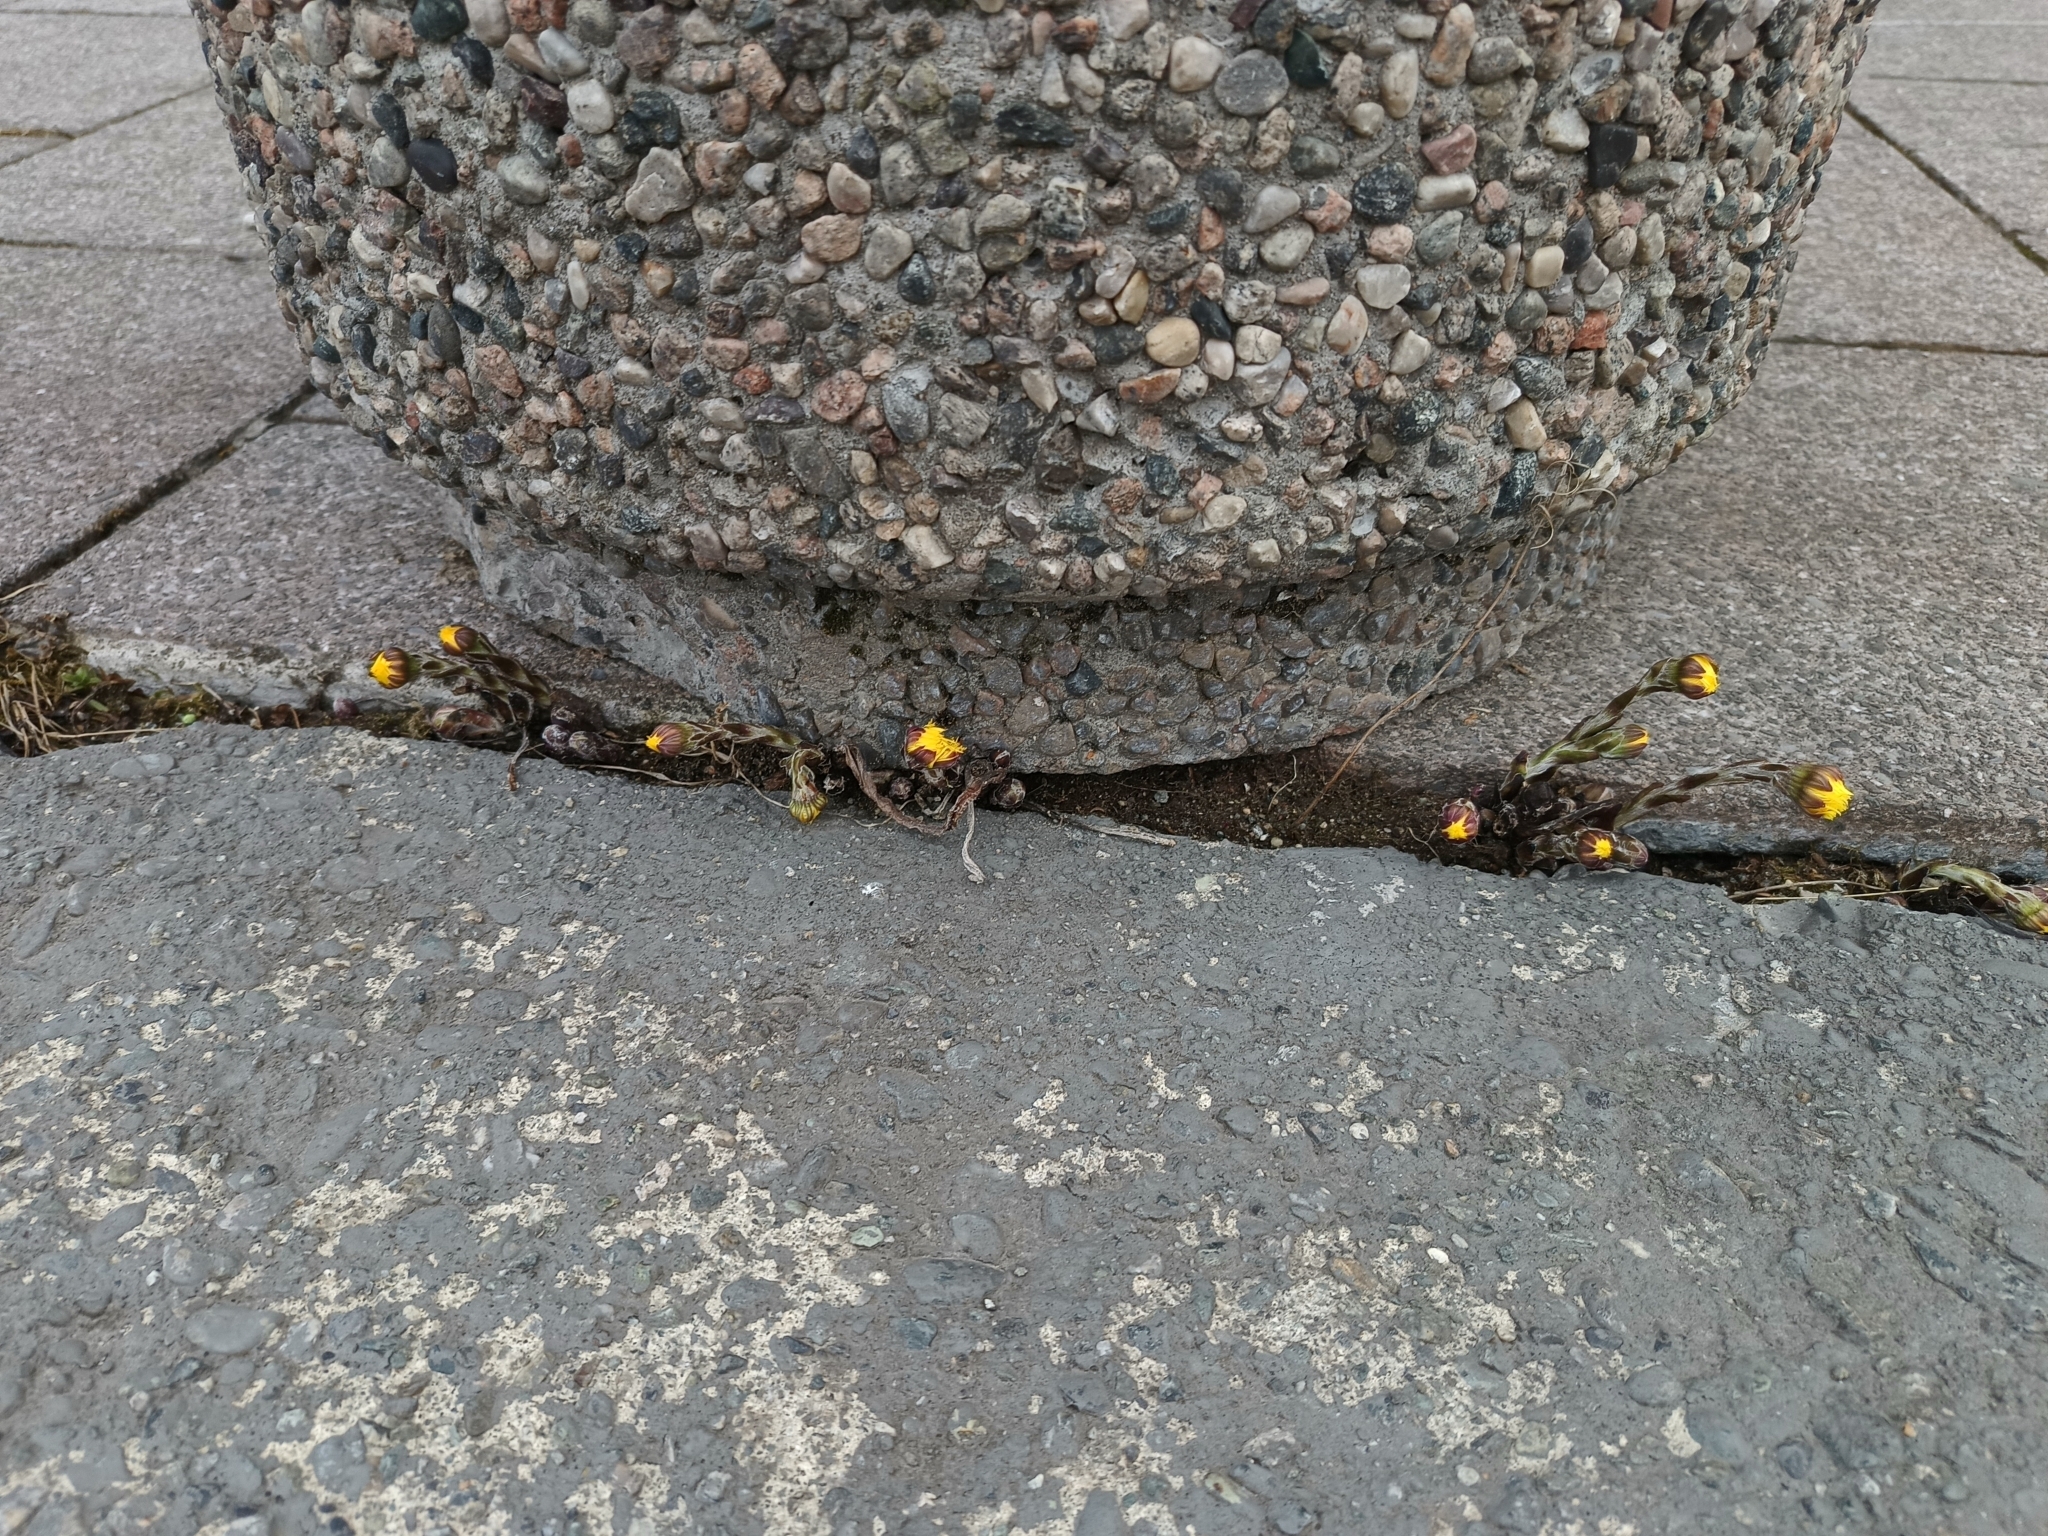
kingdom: Plantae
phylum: Tracheophyta
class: Magnoliopsida
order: Asterales
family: Asteraceae
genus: Tussilago
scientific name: Tussilago farfara
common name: Coltsfoot
